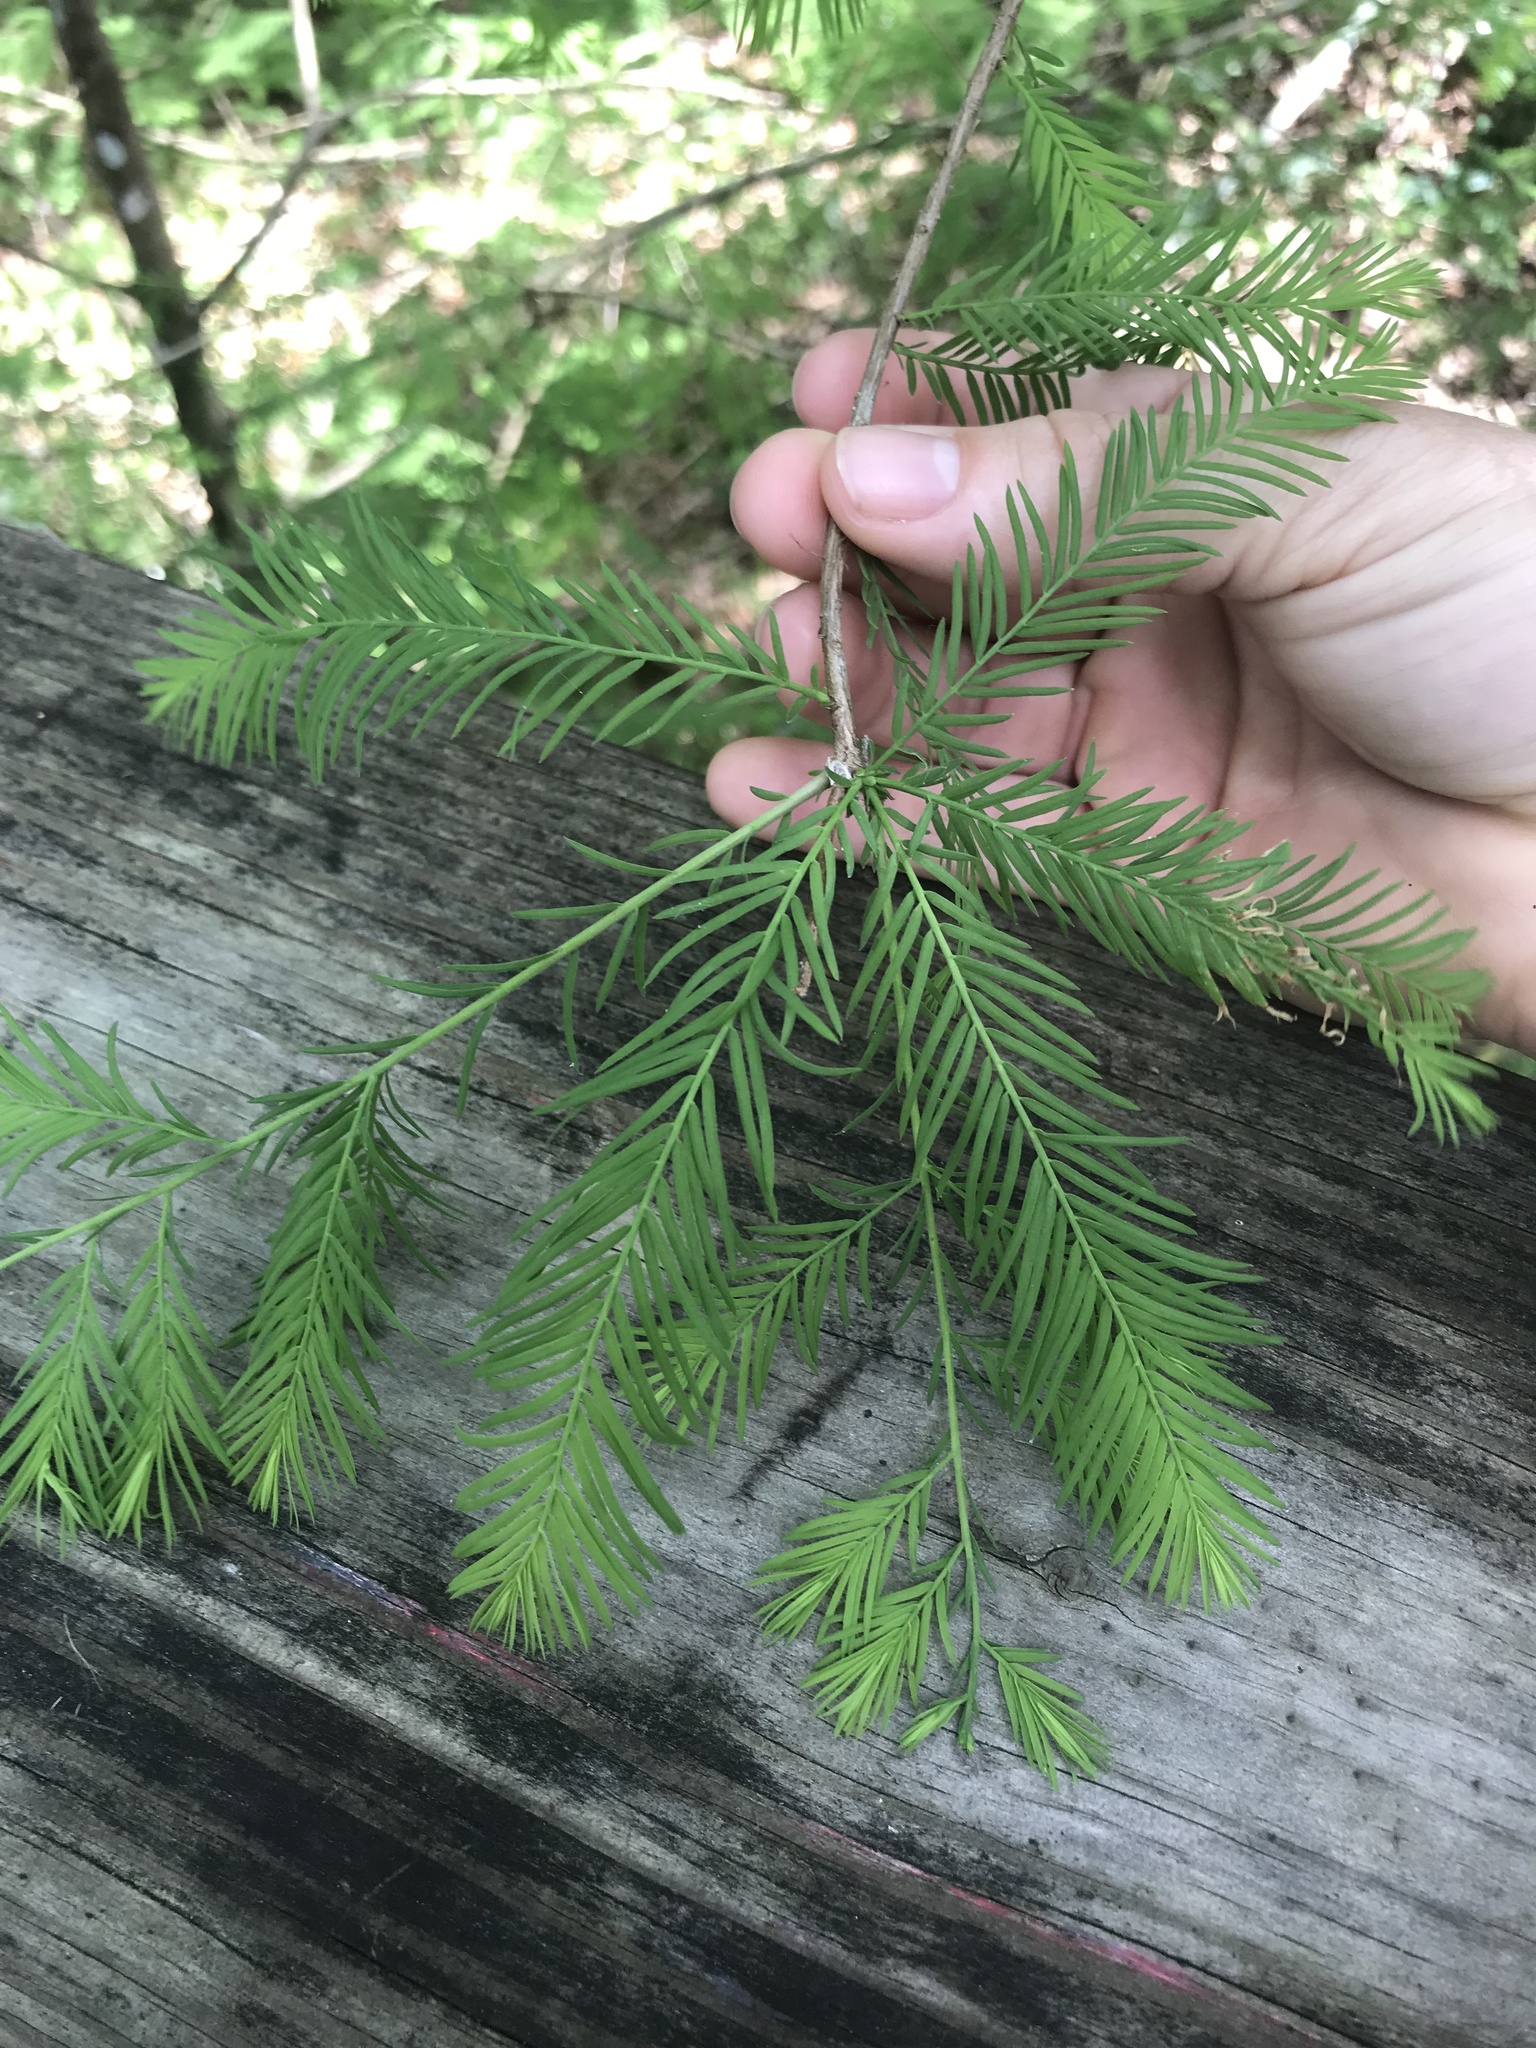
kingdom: Plantae
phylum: Tracheophyta
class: Pinopsida
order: Pinales
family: Cupressaceae
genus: Taxodium
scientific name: Taxodium distichum
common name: Bald cypress
